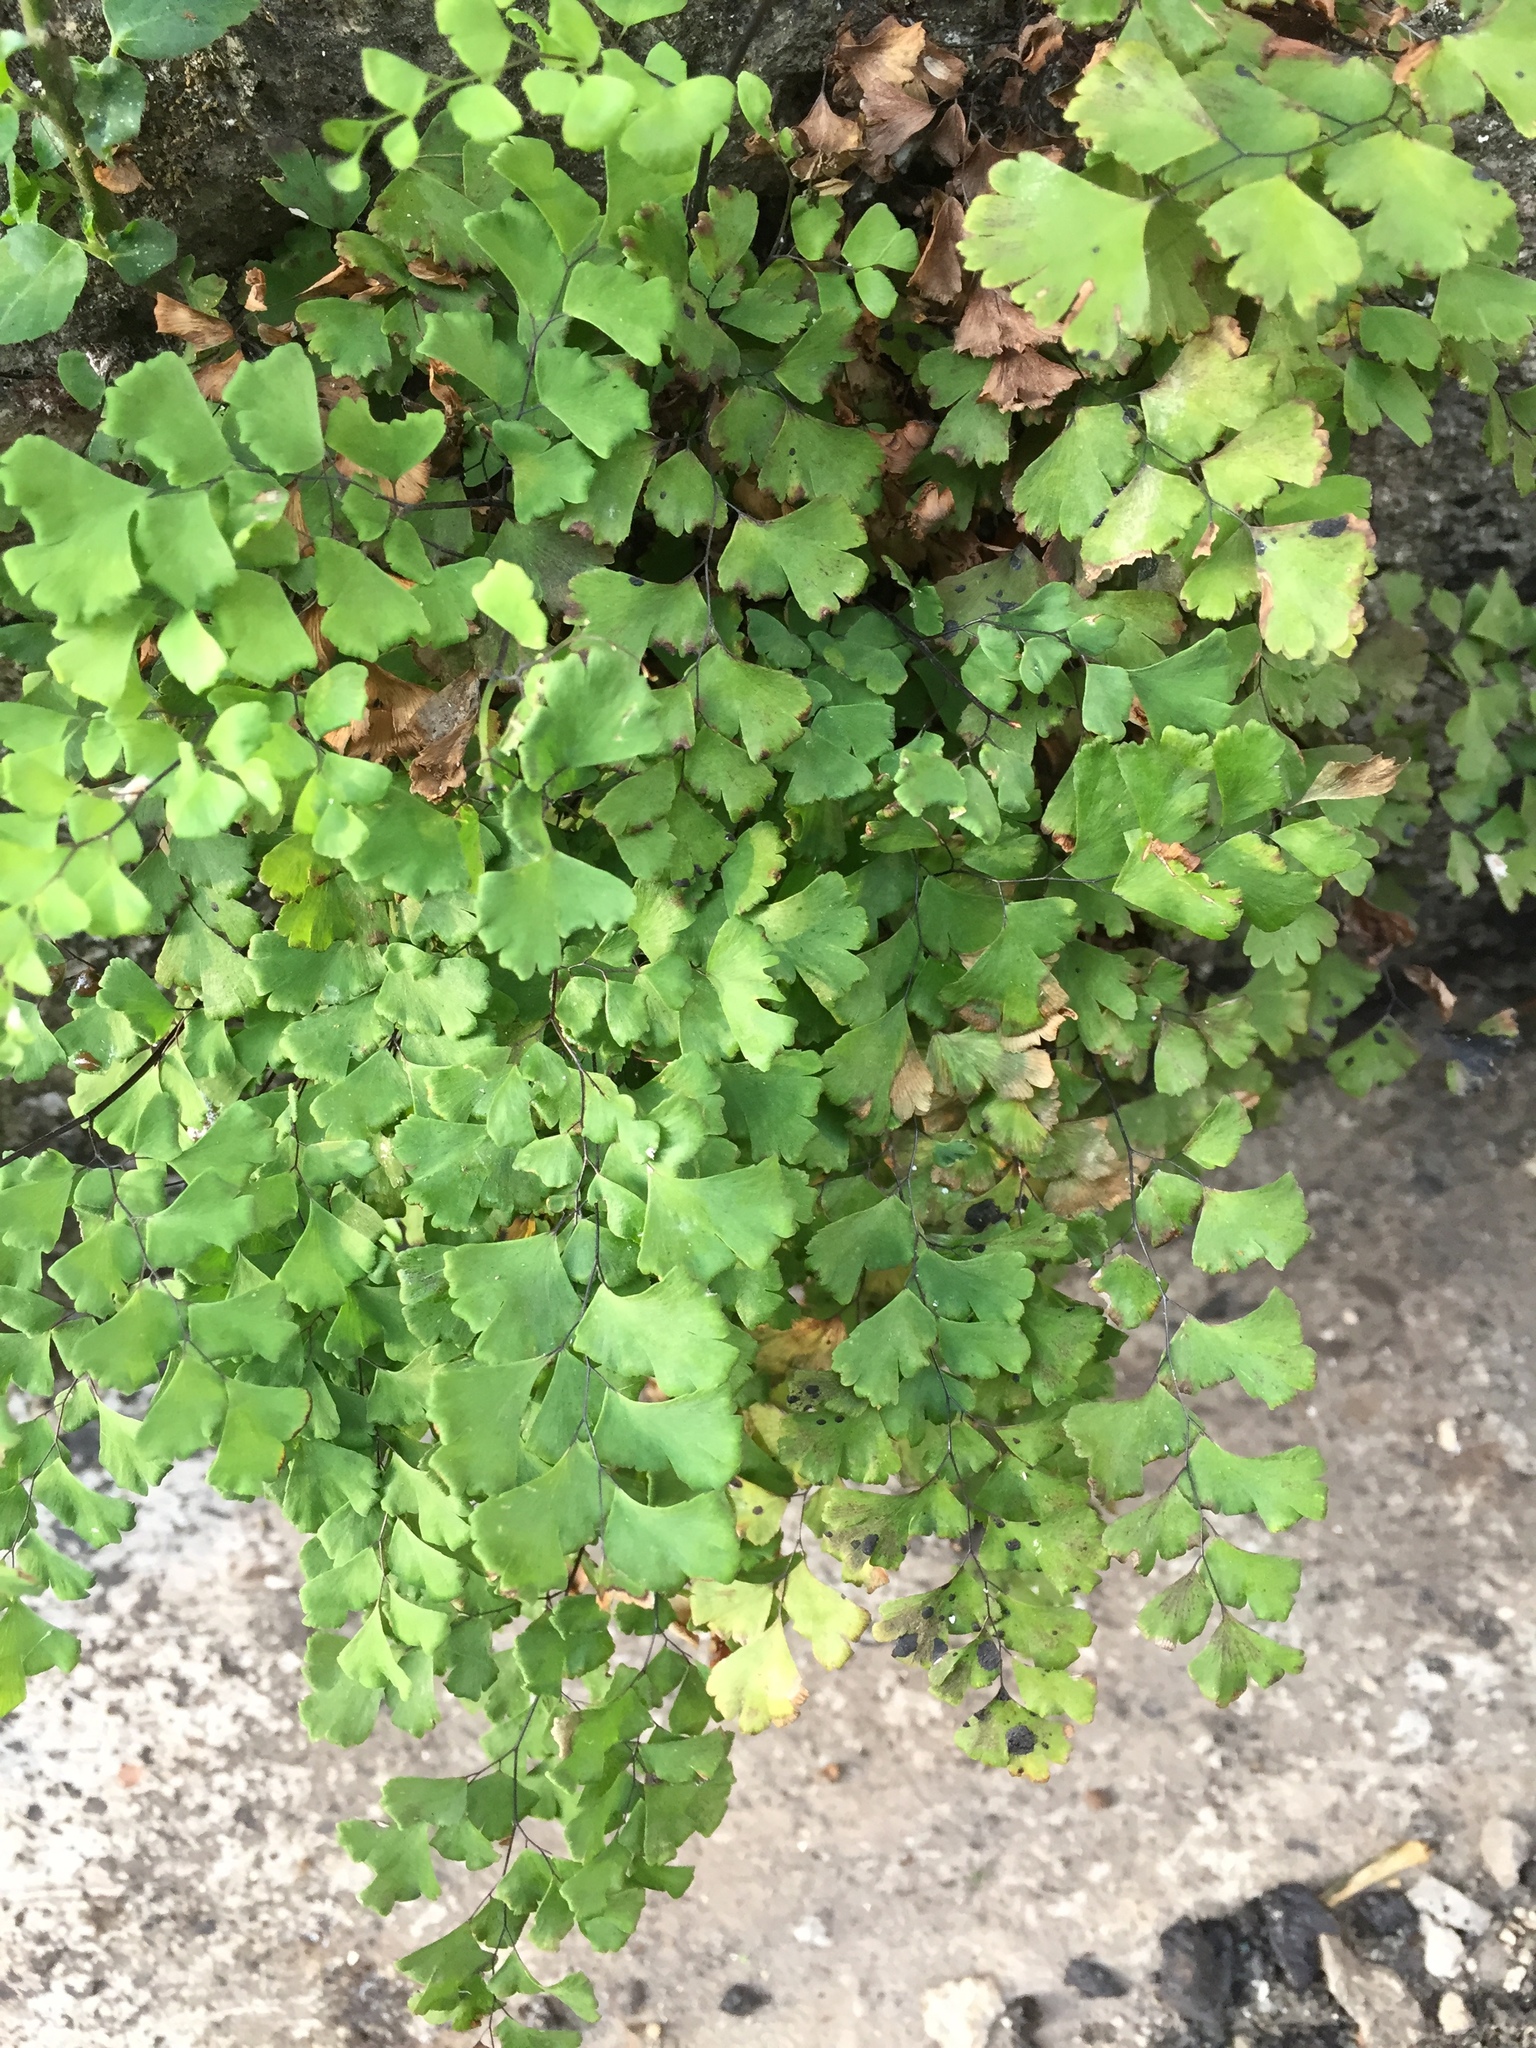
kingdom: Plantae
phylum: Tracheophyta
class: Polypodiopsida
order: Polypodiales
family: Pteridaceae
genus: Adiantum
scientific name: Adiantum capillus-veneris
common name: Maidenhair fern
